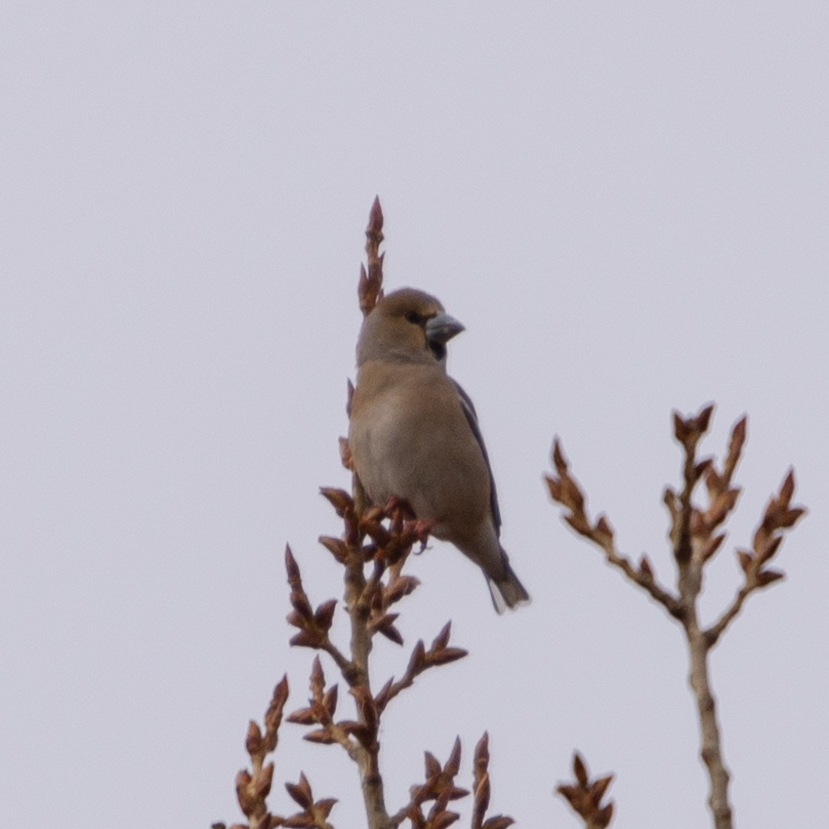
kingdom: Animalia
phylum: Chordata
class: Aves
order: Passeriformes
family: Fringillidae
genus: Coccothraustes
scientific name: Coccothraustes coccothraustes
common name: Hawfinch
